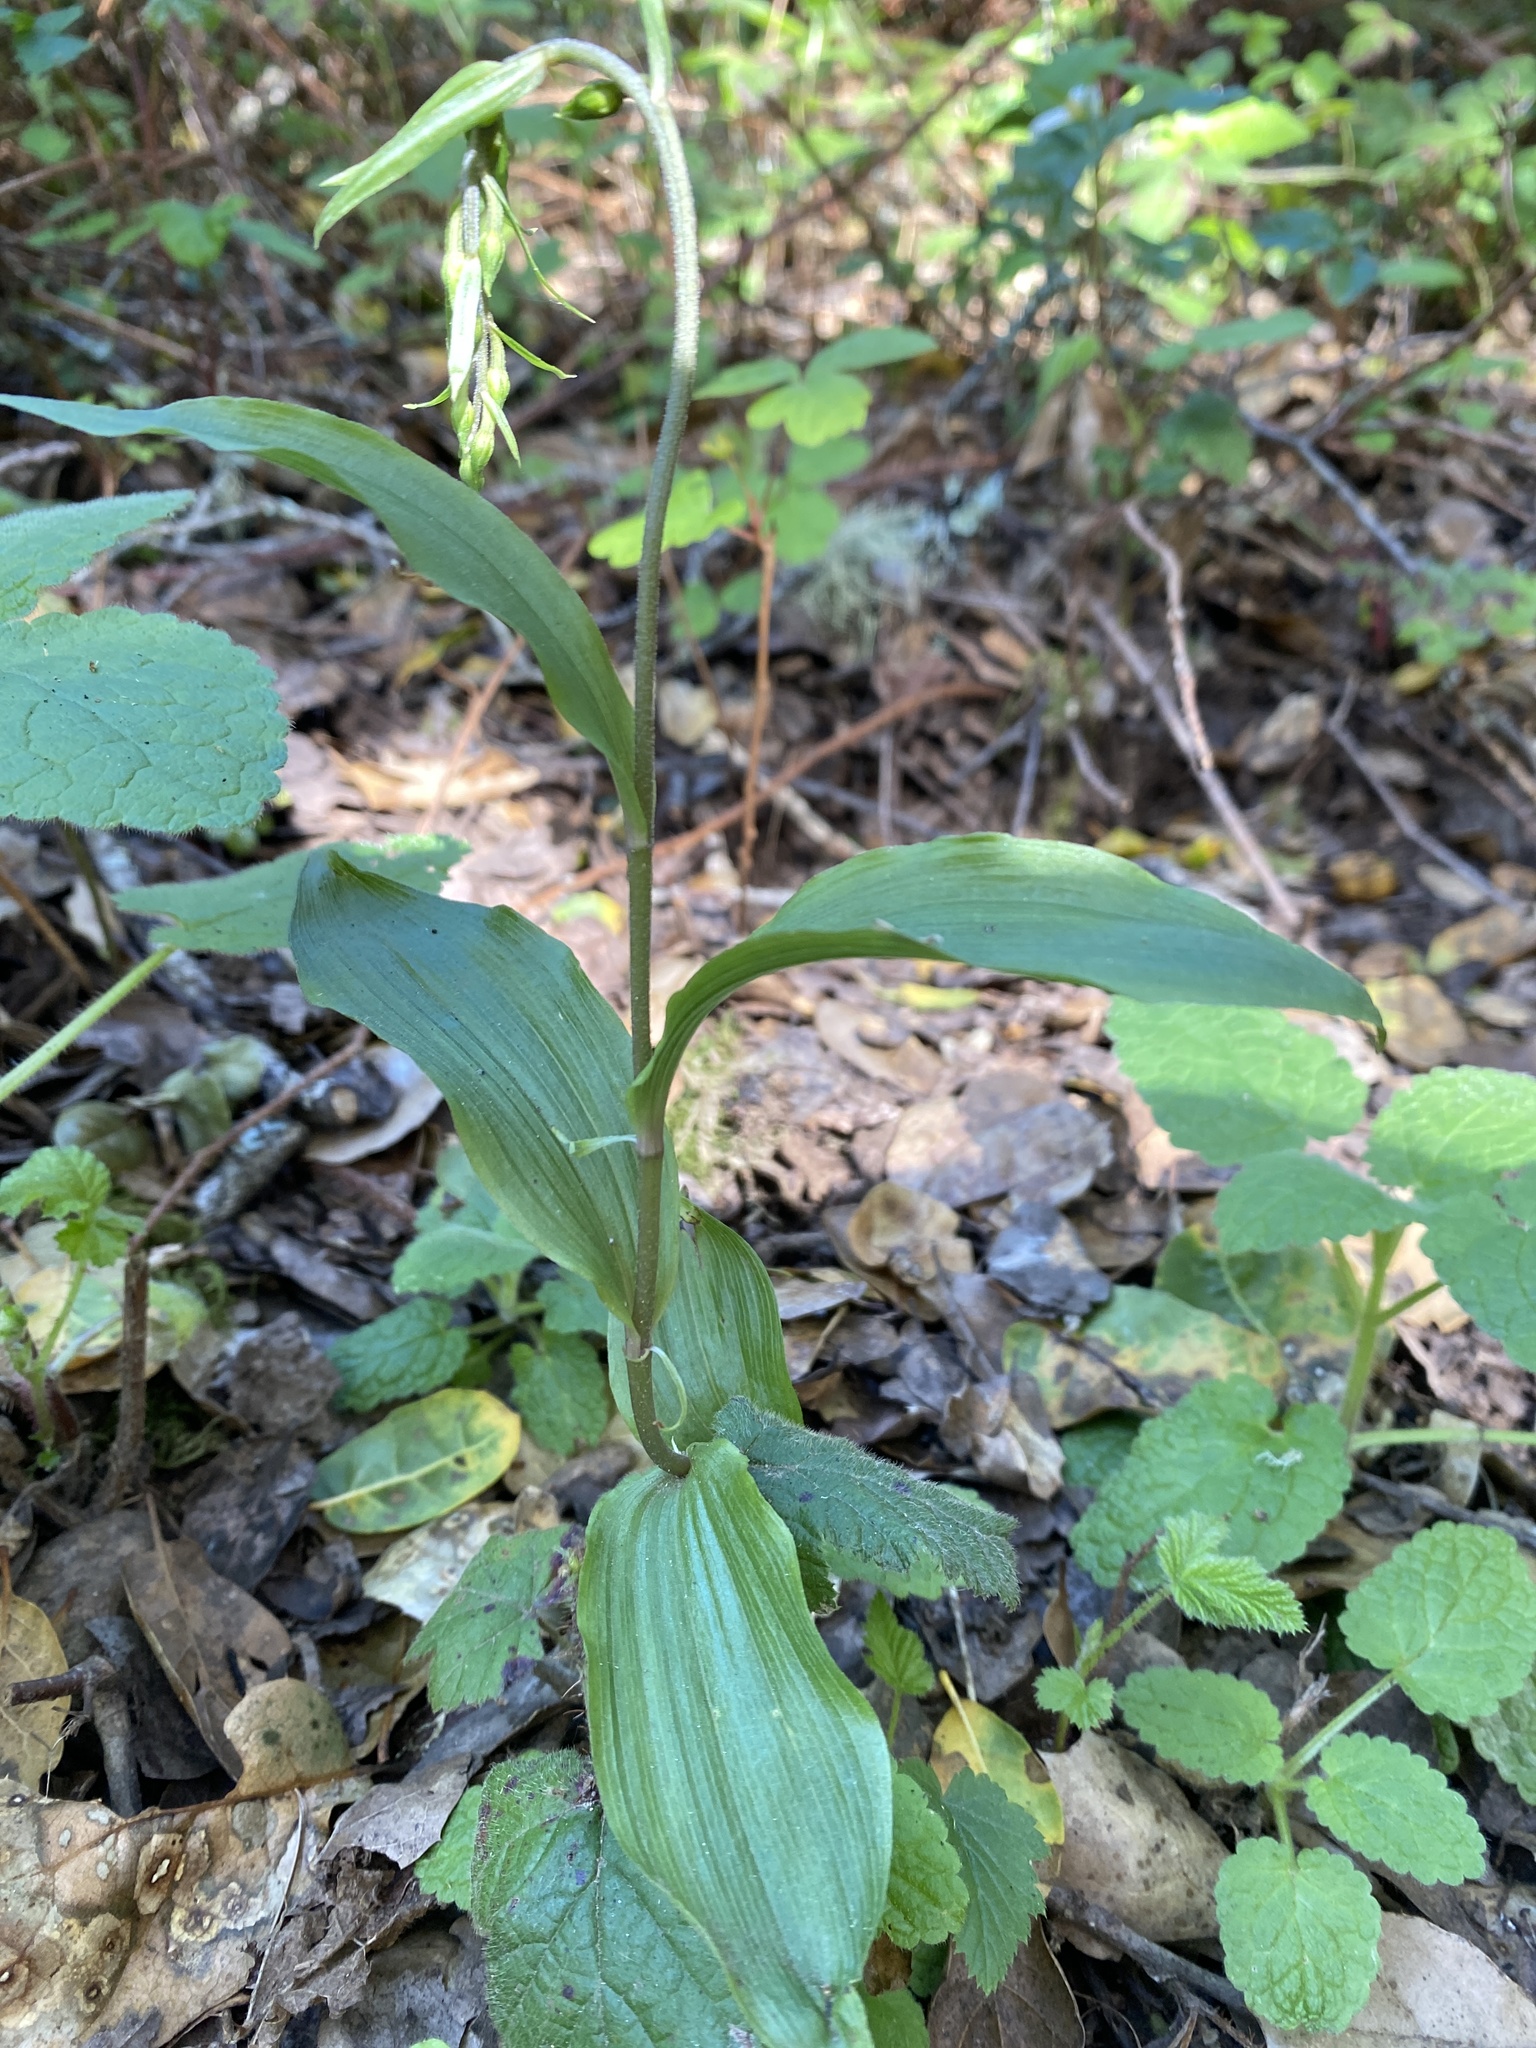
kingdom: Plantae
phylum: Tracheophyta
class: Liliopsida
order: Asparagales
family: Orchidaceae
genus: Epipactis
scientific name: Epipactis helleborine
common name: Broad-leaved helleborine
